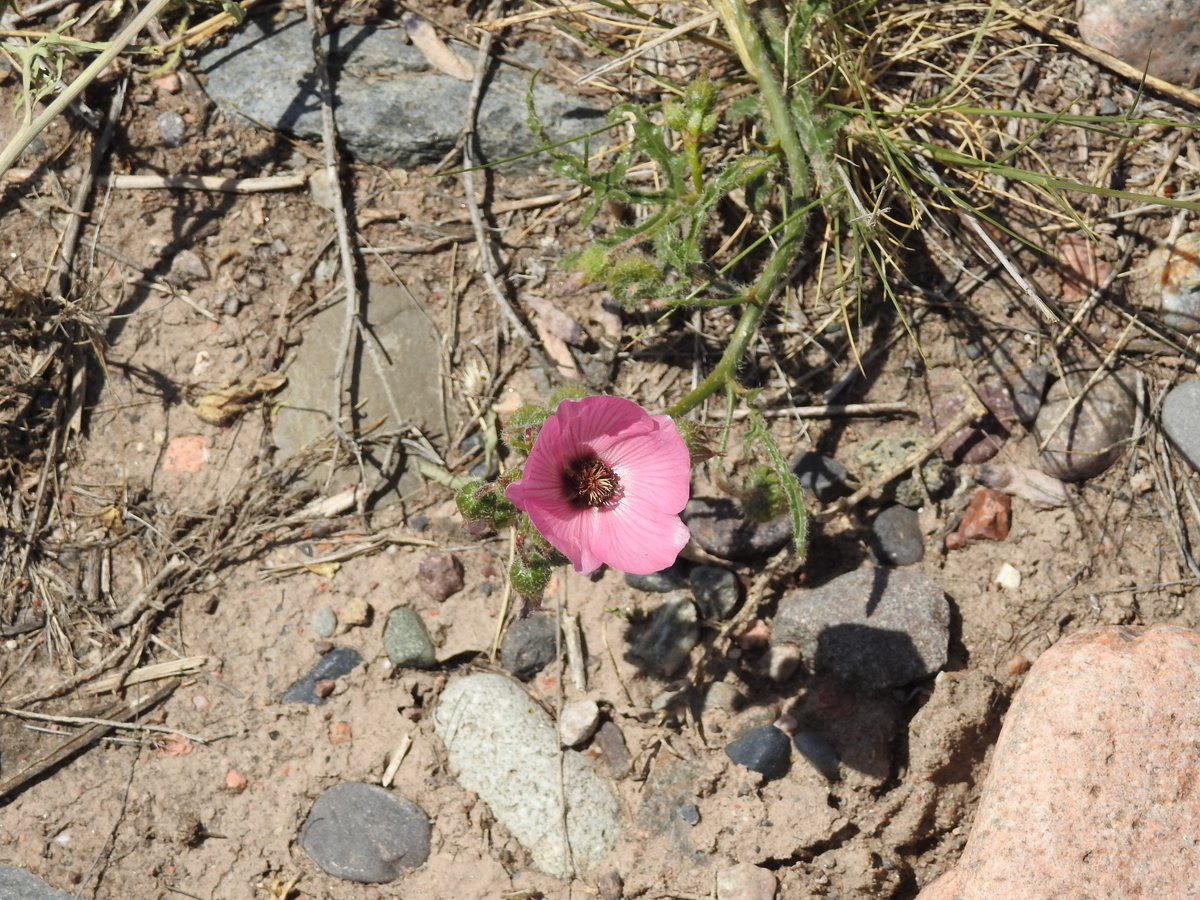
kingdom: Plantae
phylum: Tracheophyta
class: Magnoliopsida
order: Malvales
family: Malvaceae
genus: Lecanophora
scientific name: Lecanophora heterophylla
